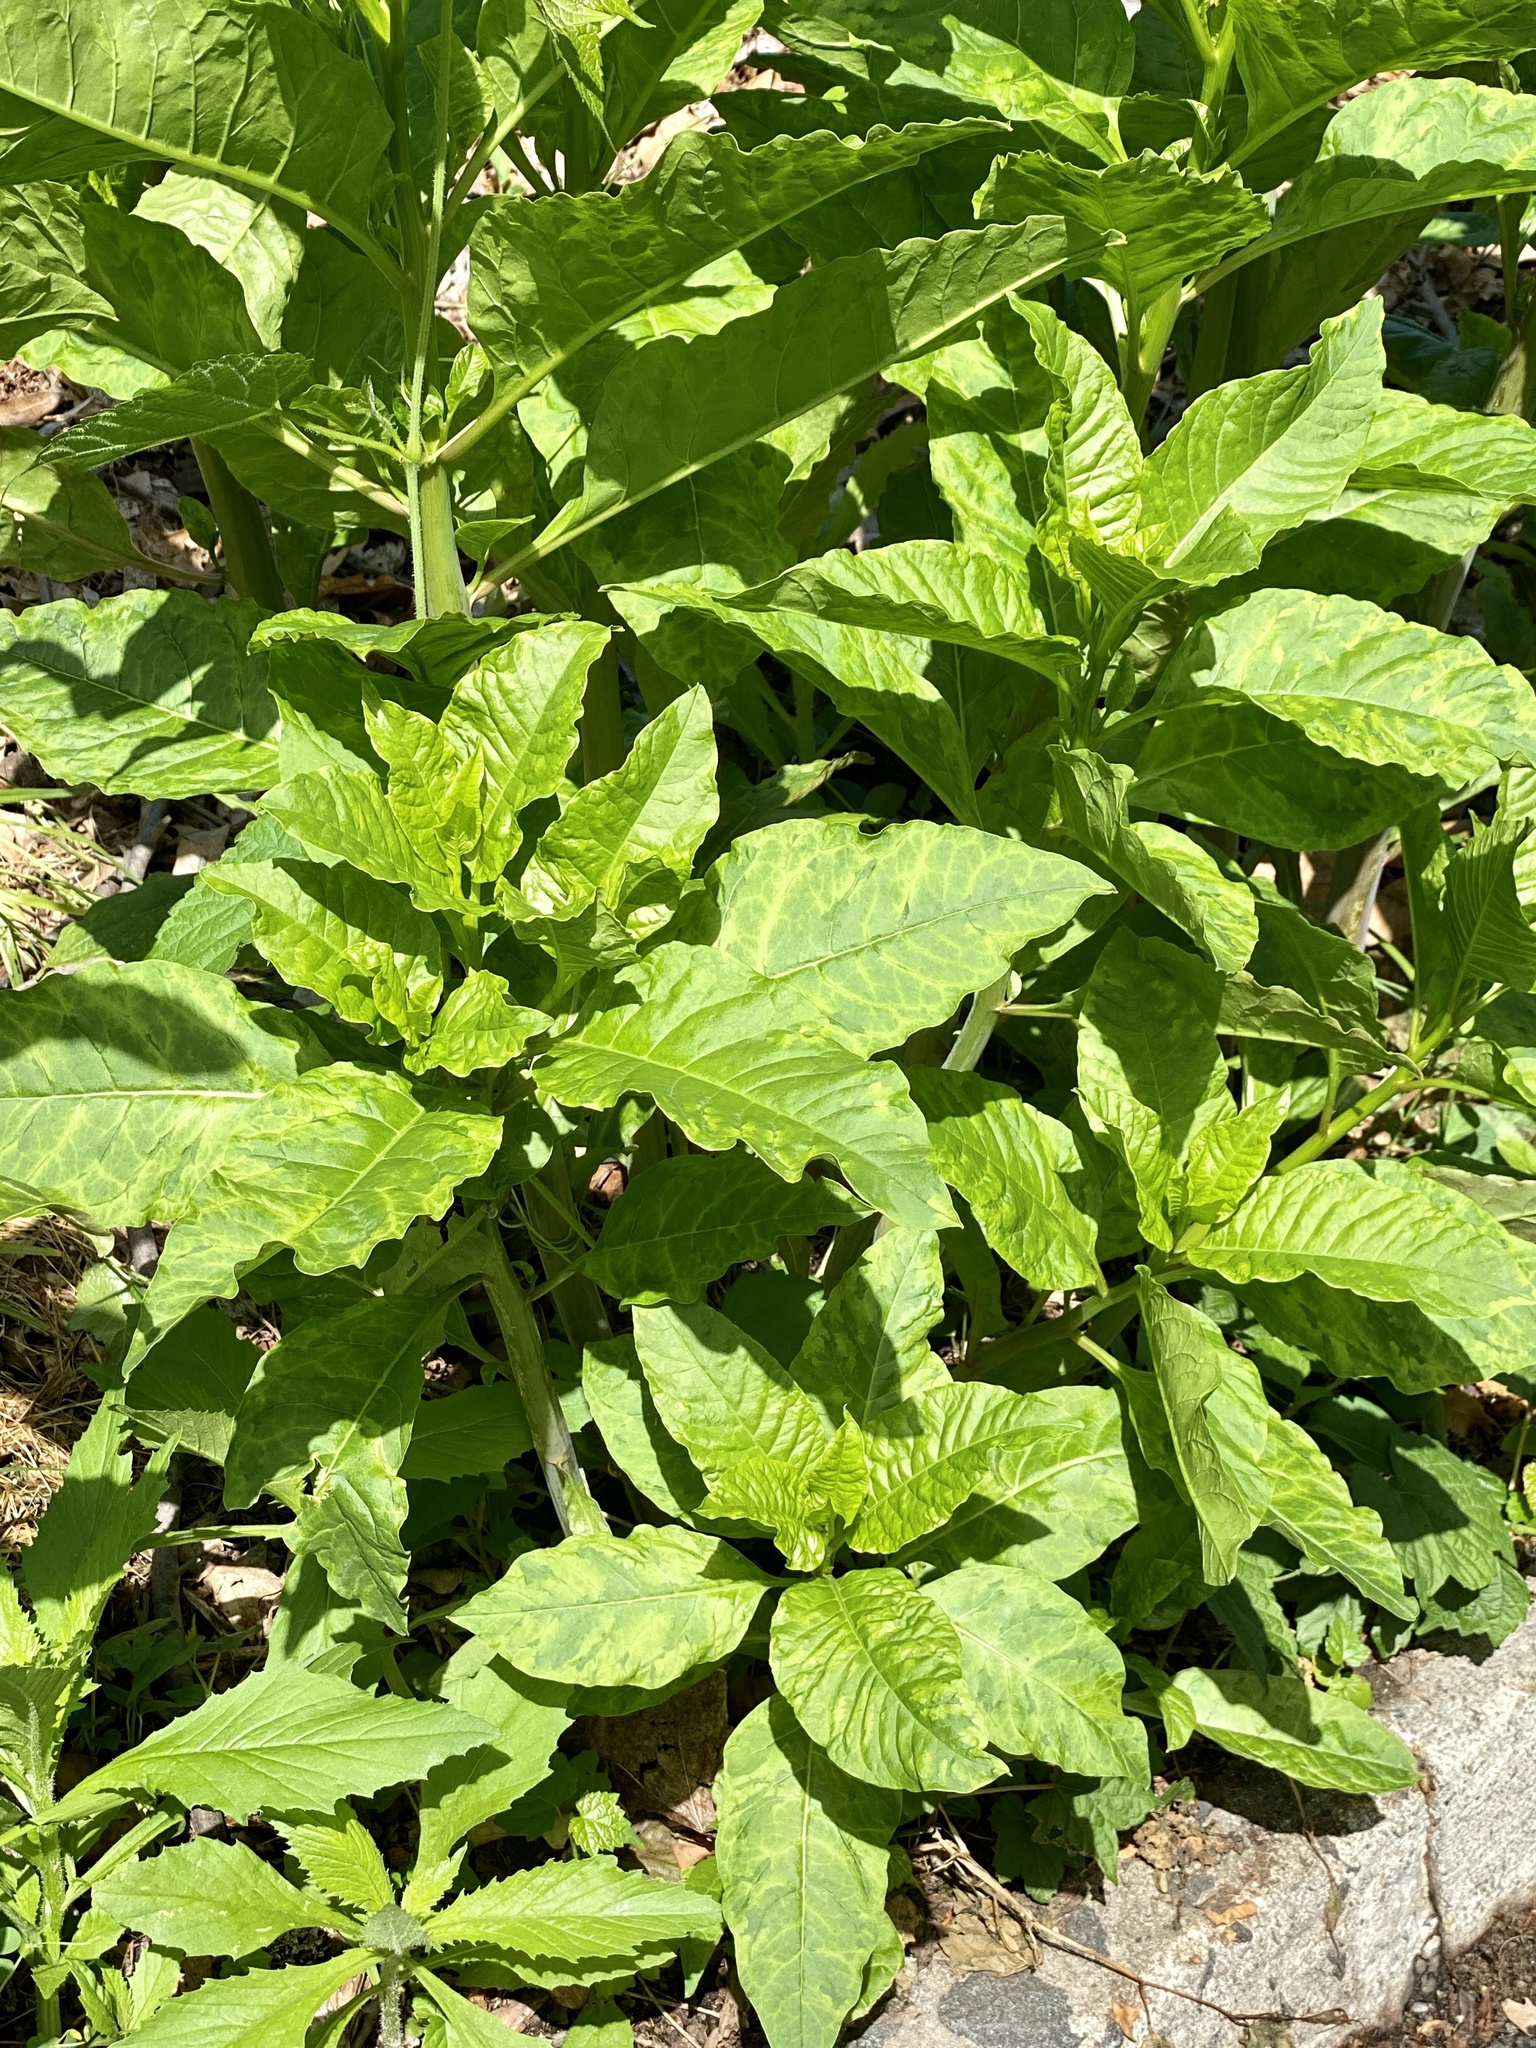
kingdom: Plantae
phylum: Tracheophyta
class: Magnoliopsida
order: Caryophyllales
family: Phytolaccaceae
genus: Phytolacca
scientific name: Phytolacca americana
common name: American pokeweed
